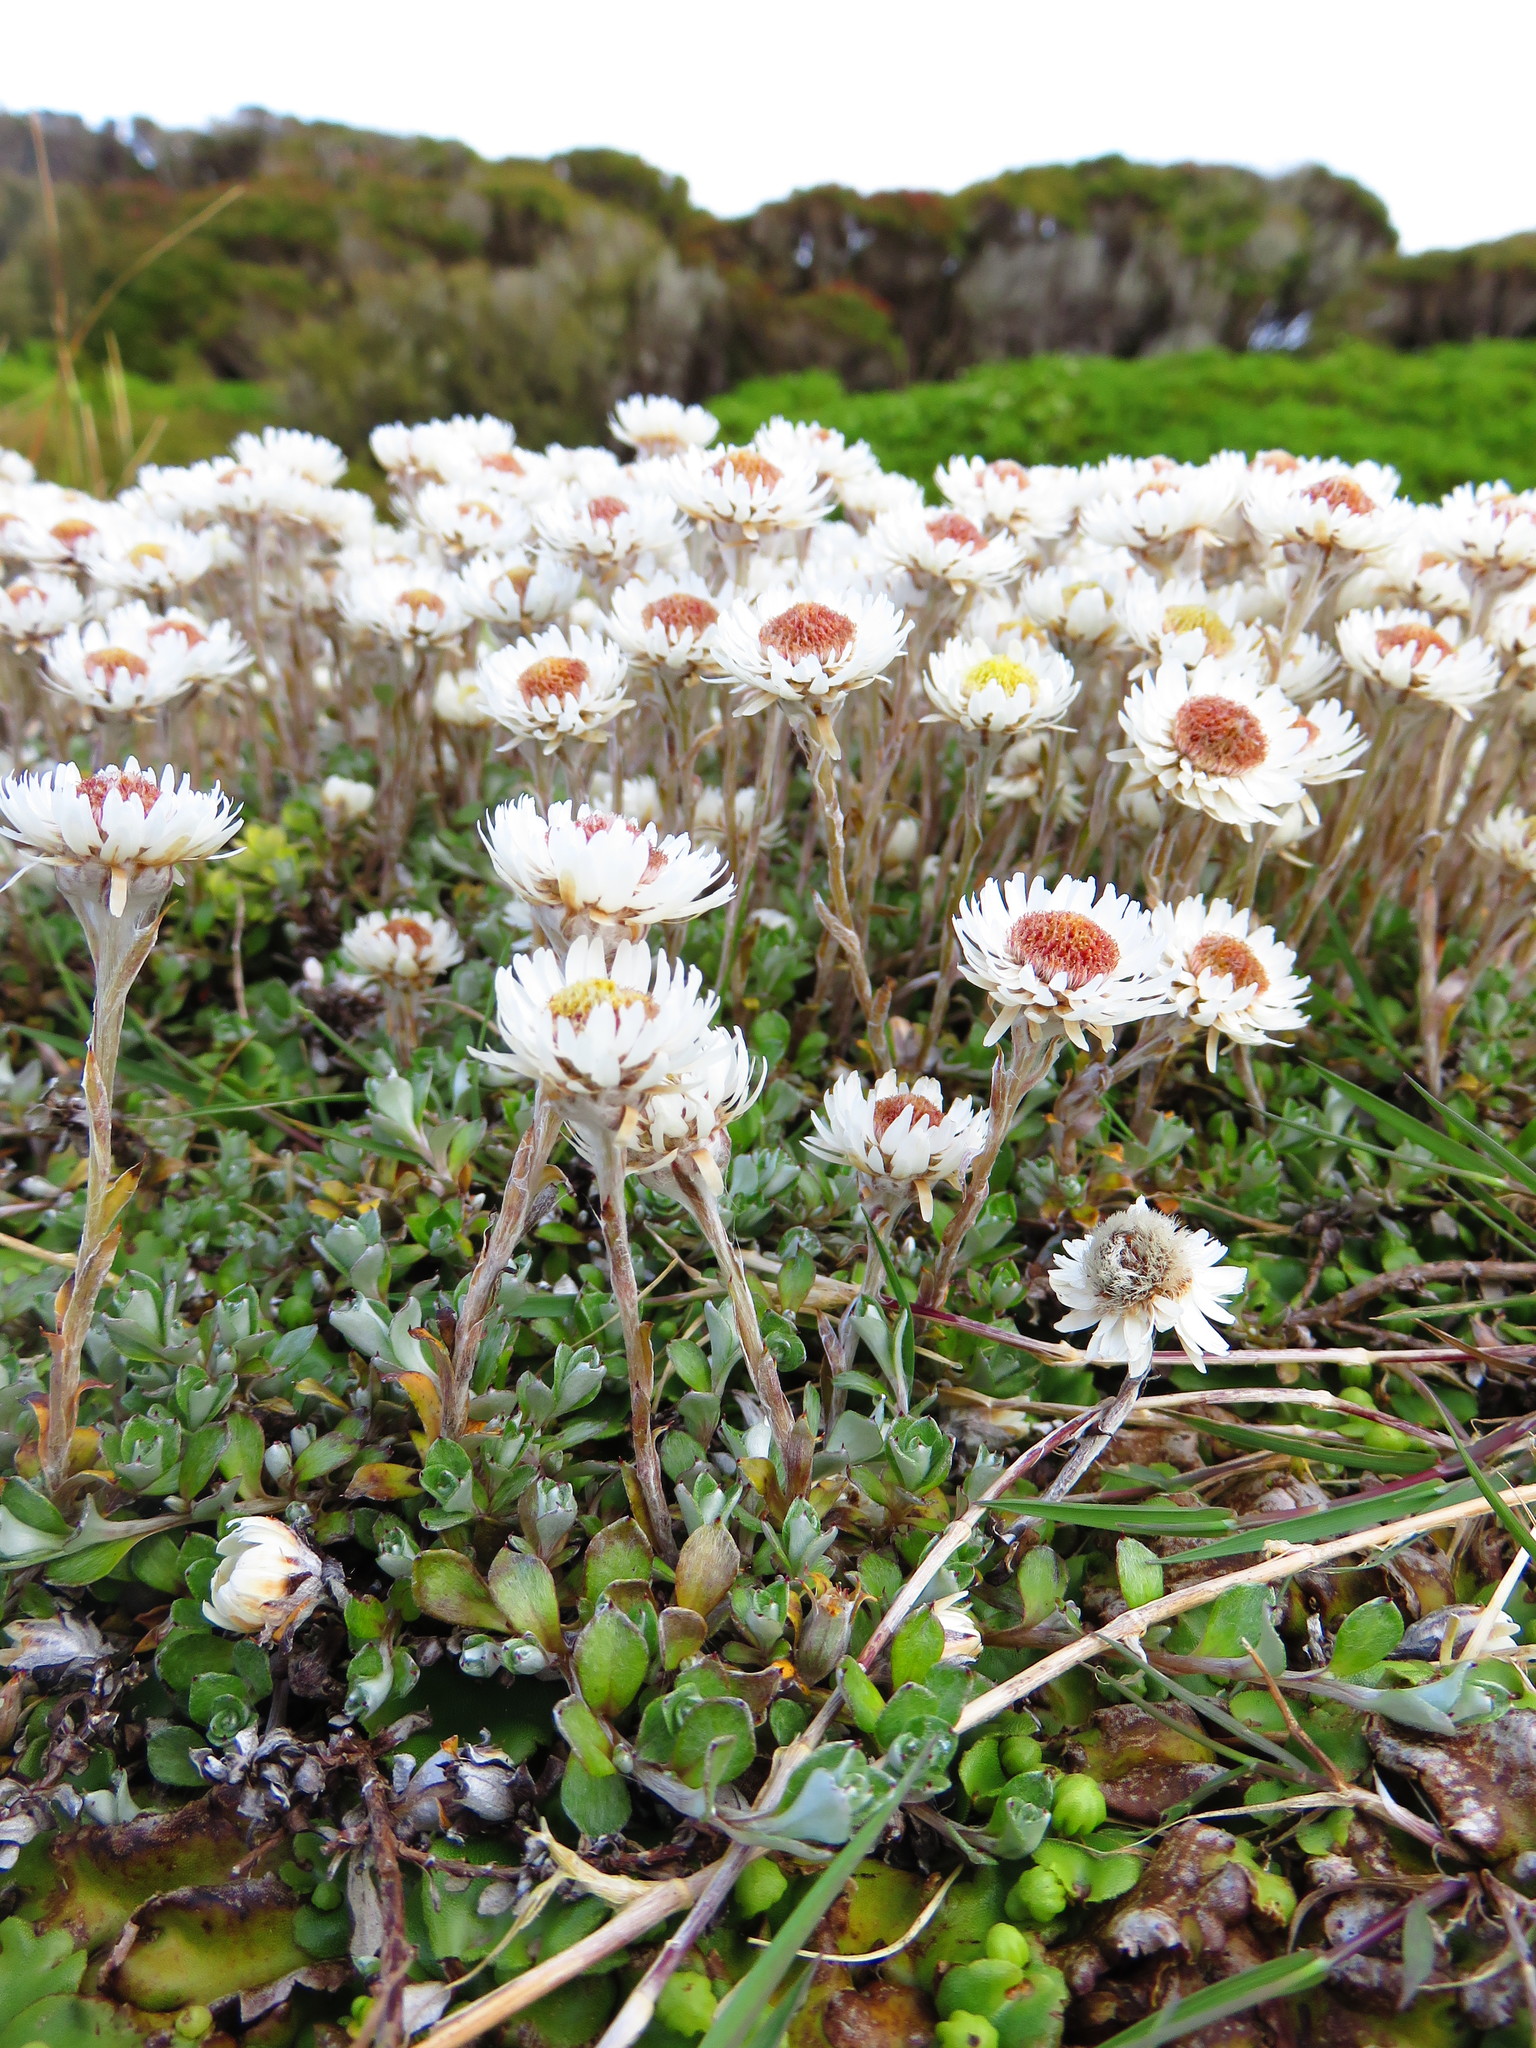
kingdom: Plantae
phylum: Tracheophyta
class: Magnoliopsida
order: Asterales
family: Asteraceae
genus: Anaphalioides
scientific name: Anaphalioides bellidioides
